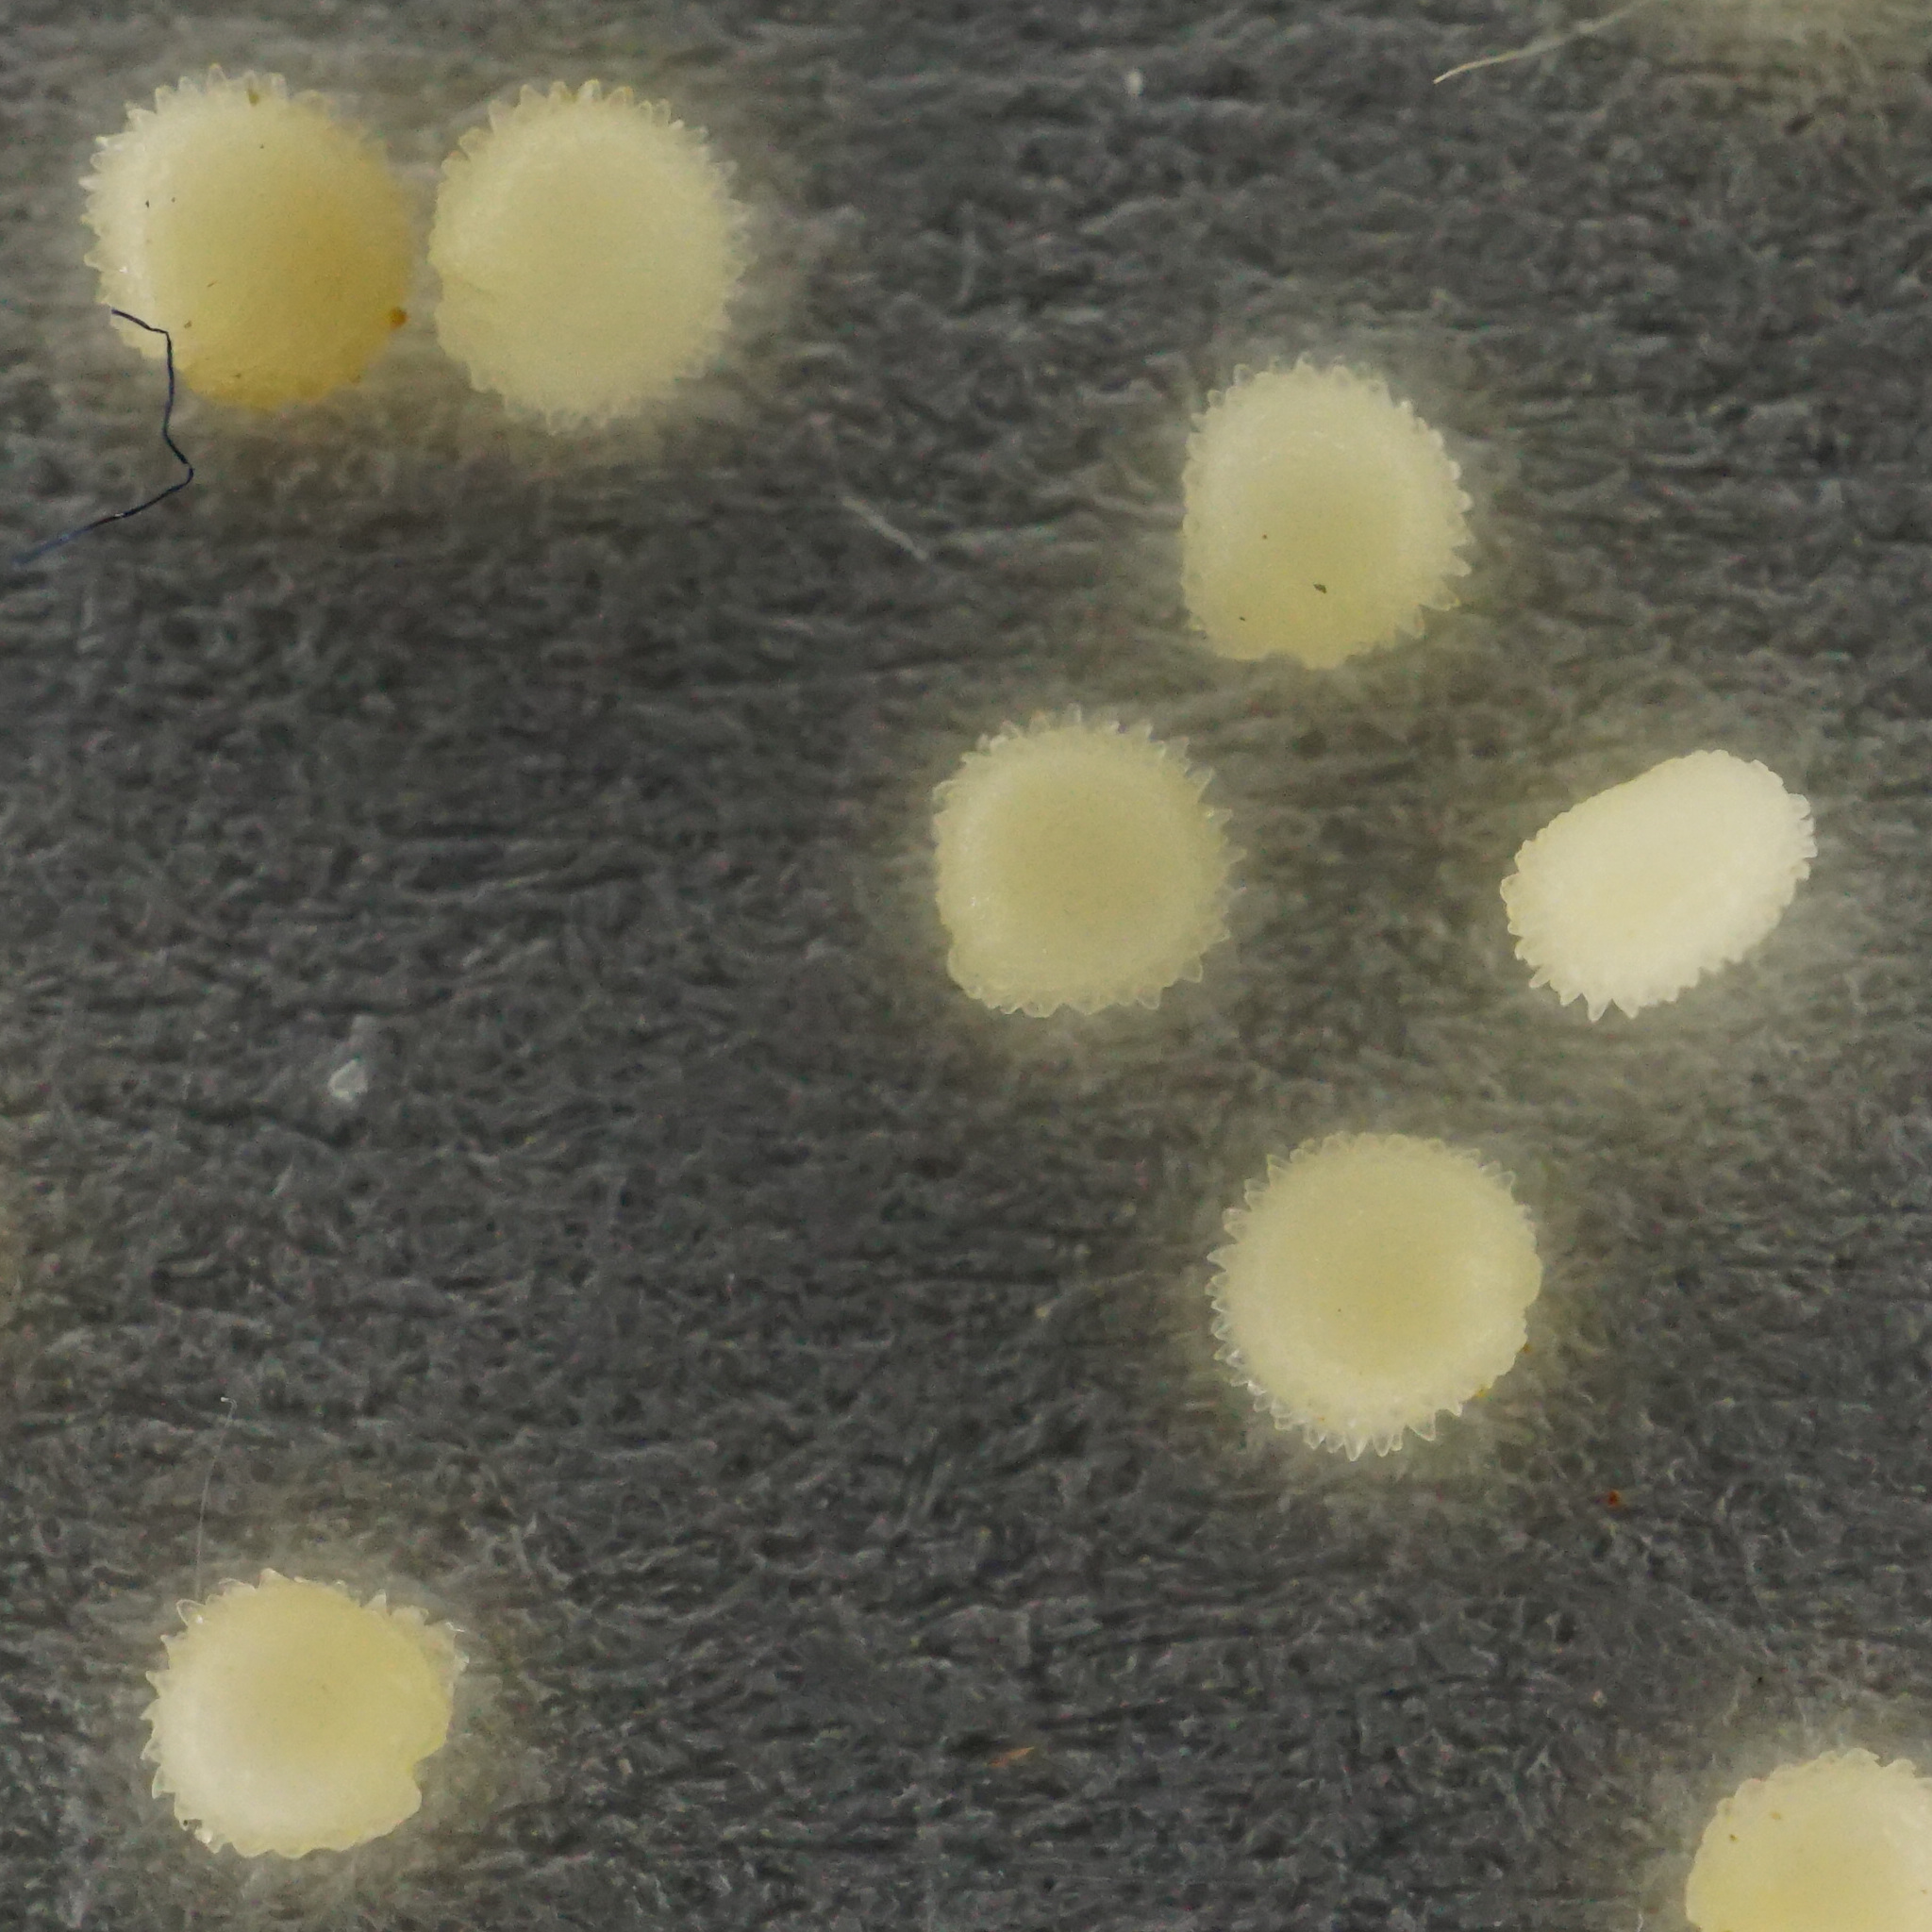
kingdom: Plantae
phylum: Tracheophyta
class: Magnoliopsida
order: Caryophyllales
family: Caryophyllaceae
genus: Stellaria
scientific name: Stellaria ruderalis
